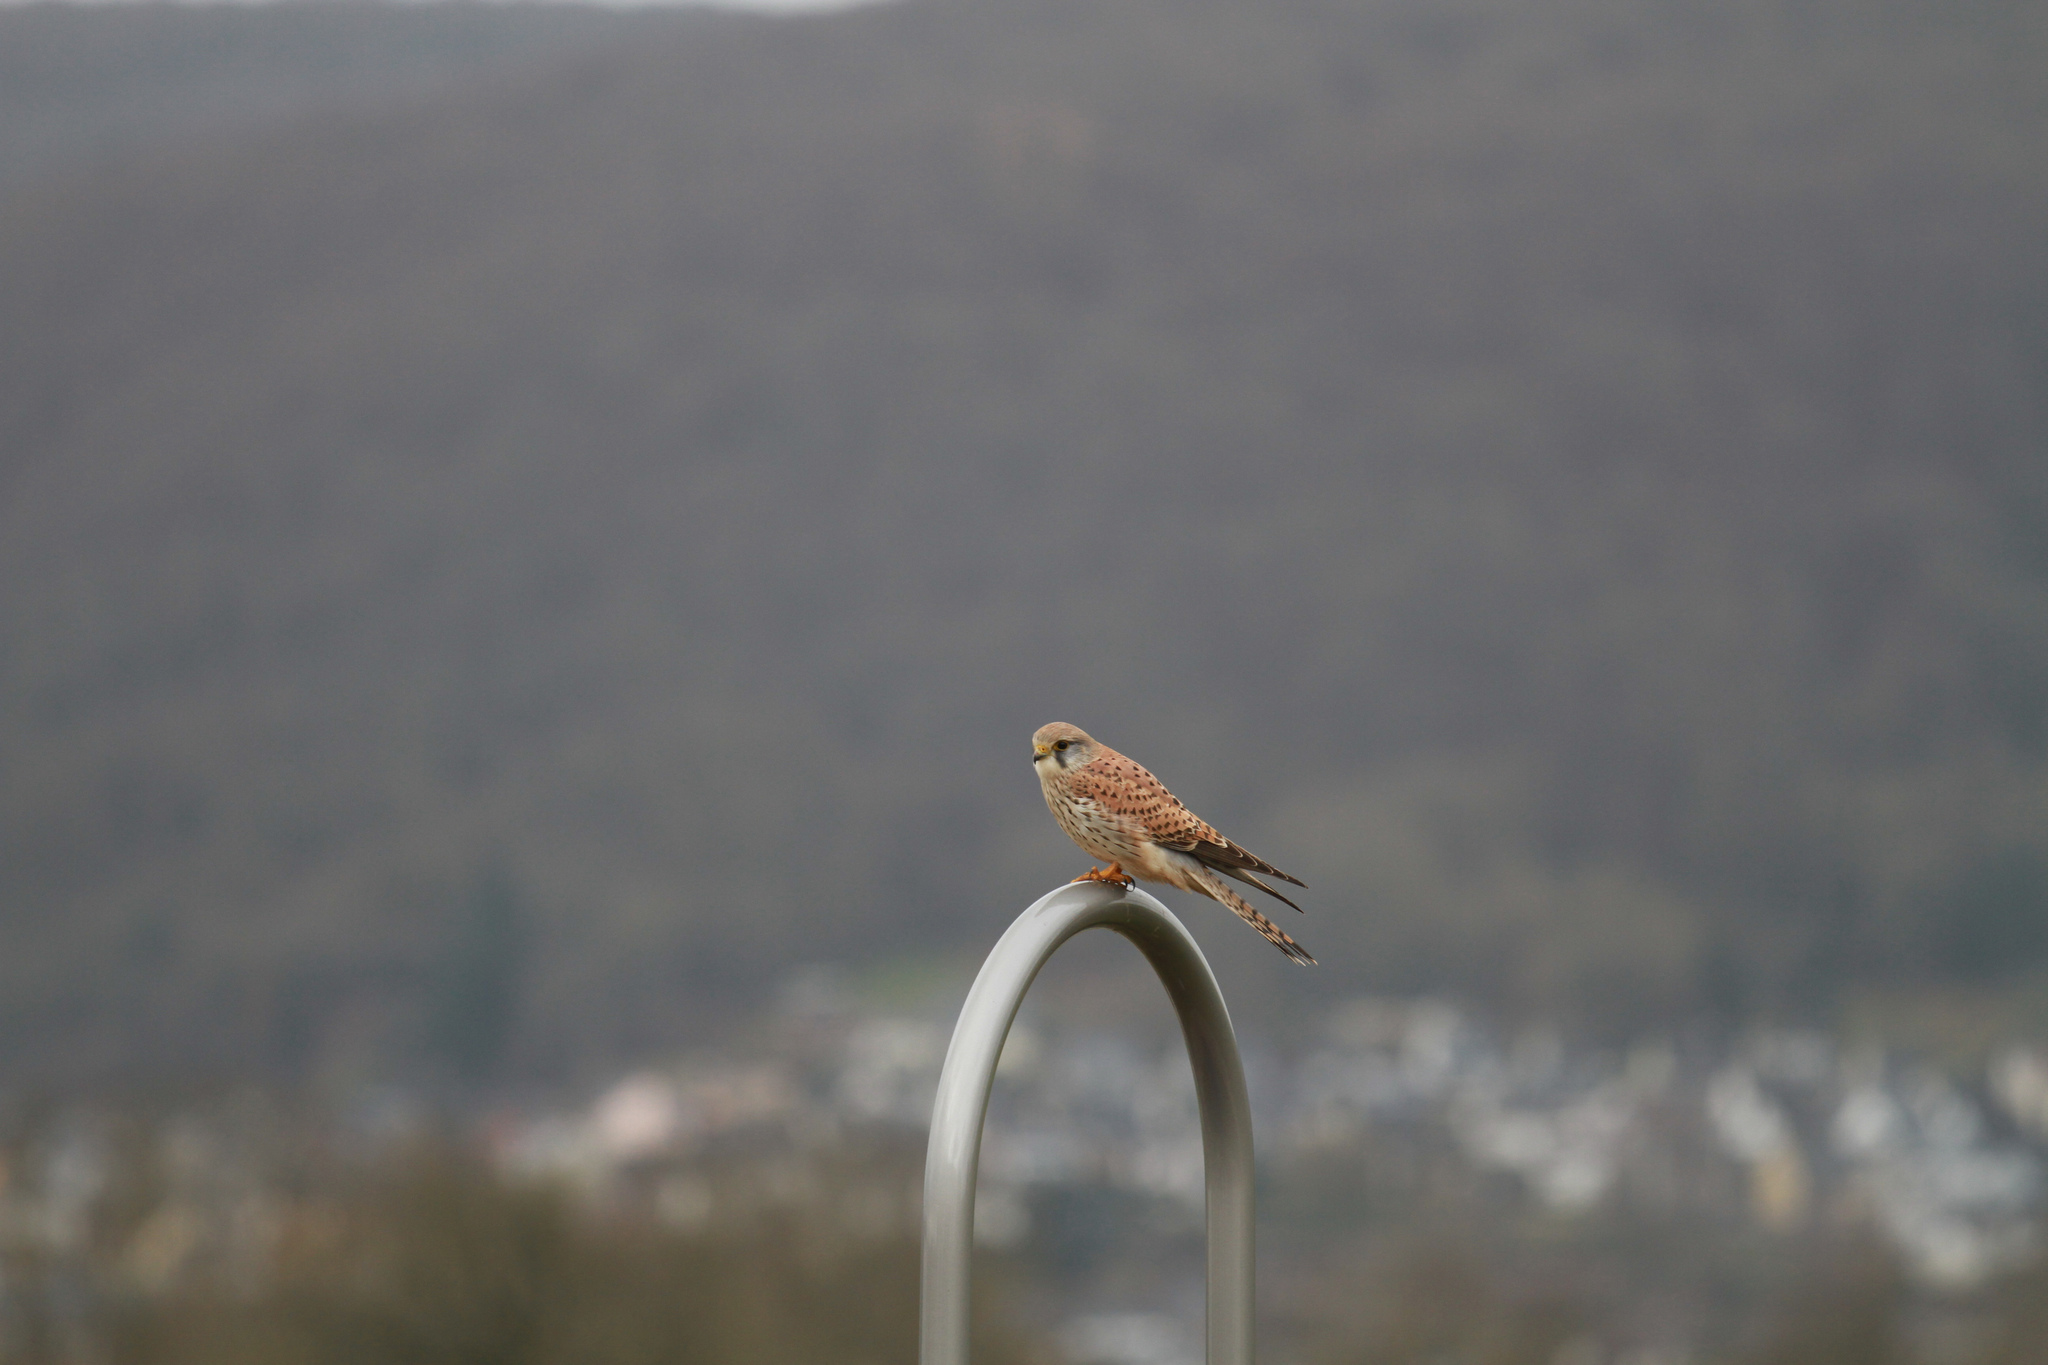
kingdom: Animalia
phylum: Chordata
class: Aves
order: Falconiformes
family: Falconidae
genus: Falco
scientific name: Falco tinnunculus
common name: Common kestrel
